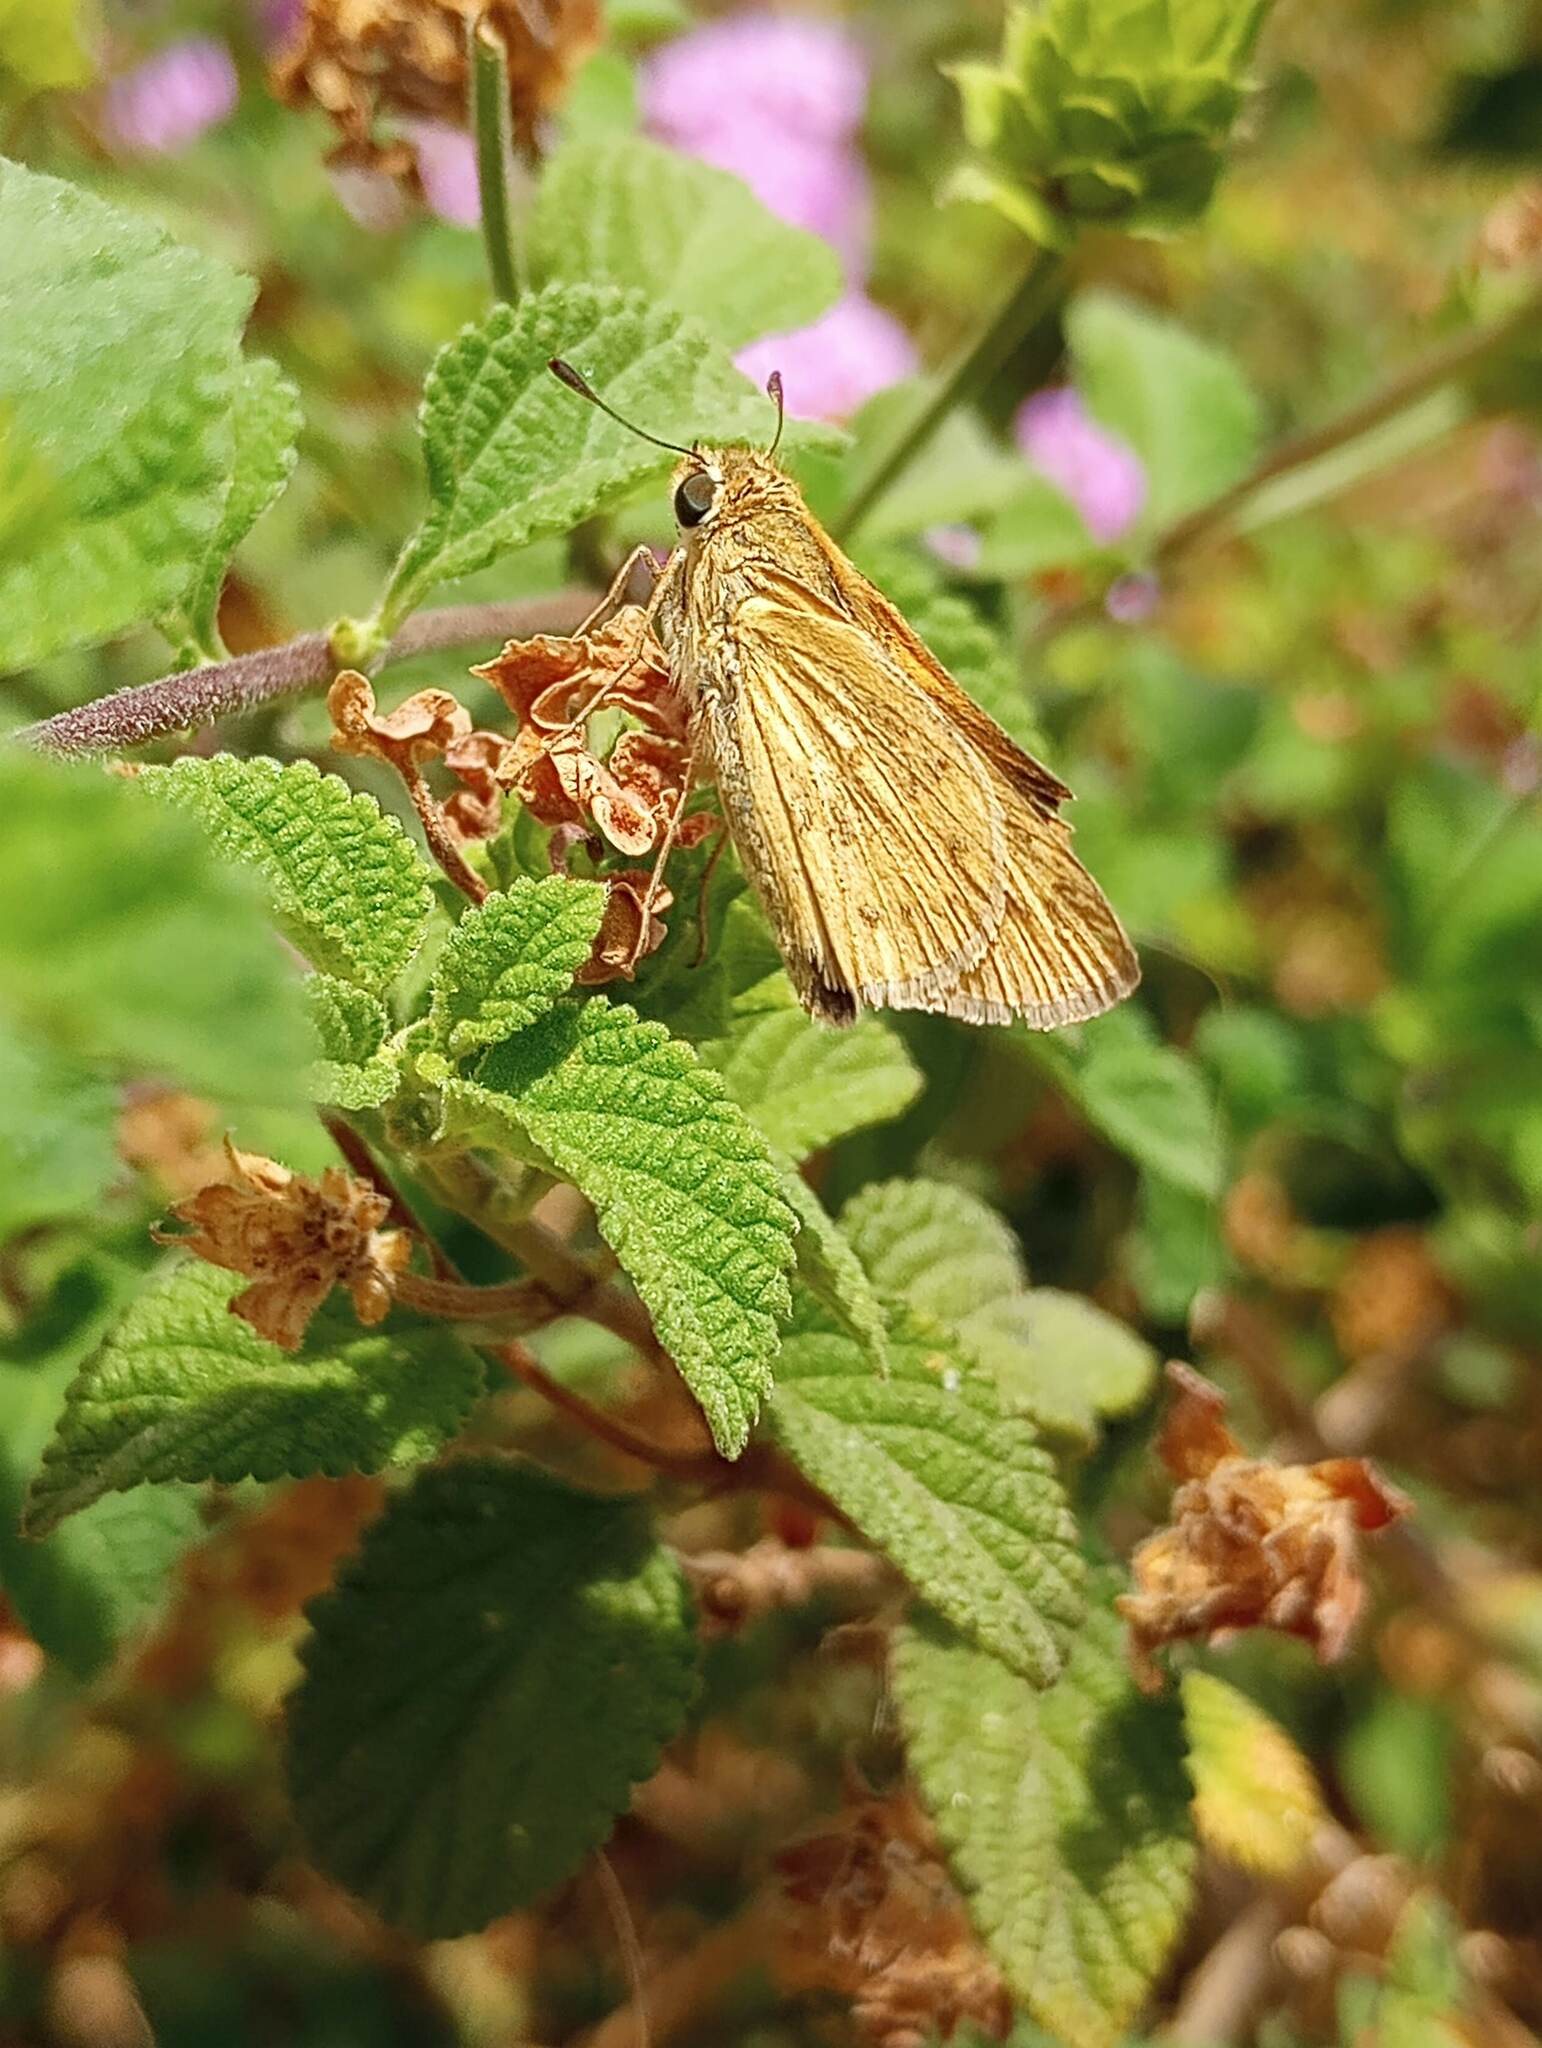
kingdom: Animalia
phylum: Arthropoda
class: Insecta
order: Lepidoptera
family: Hesperiidae
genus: Hylephila
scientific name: Hylephila phyleus
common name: Fiery skipper
